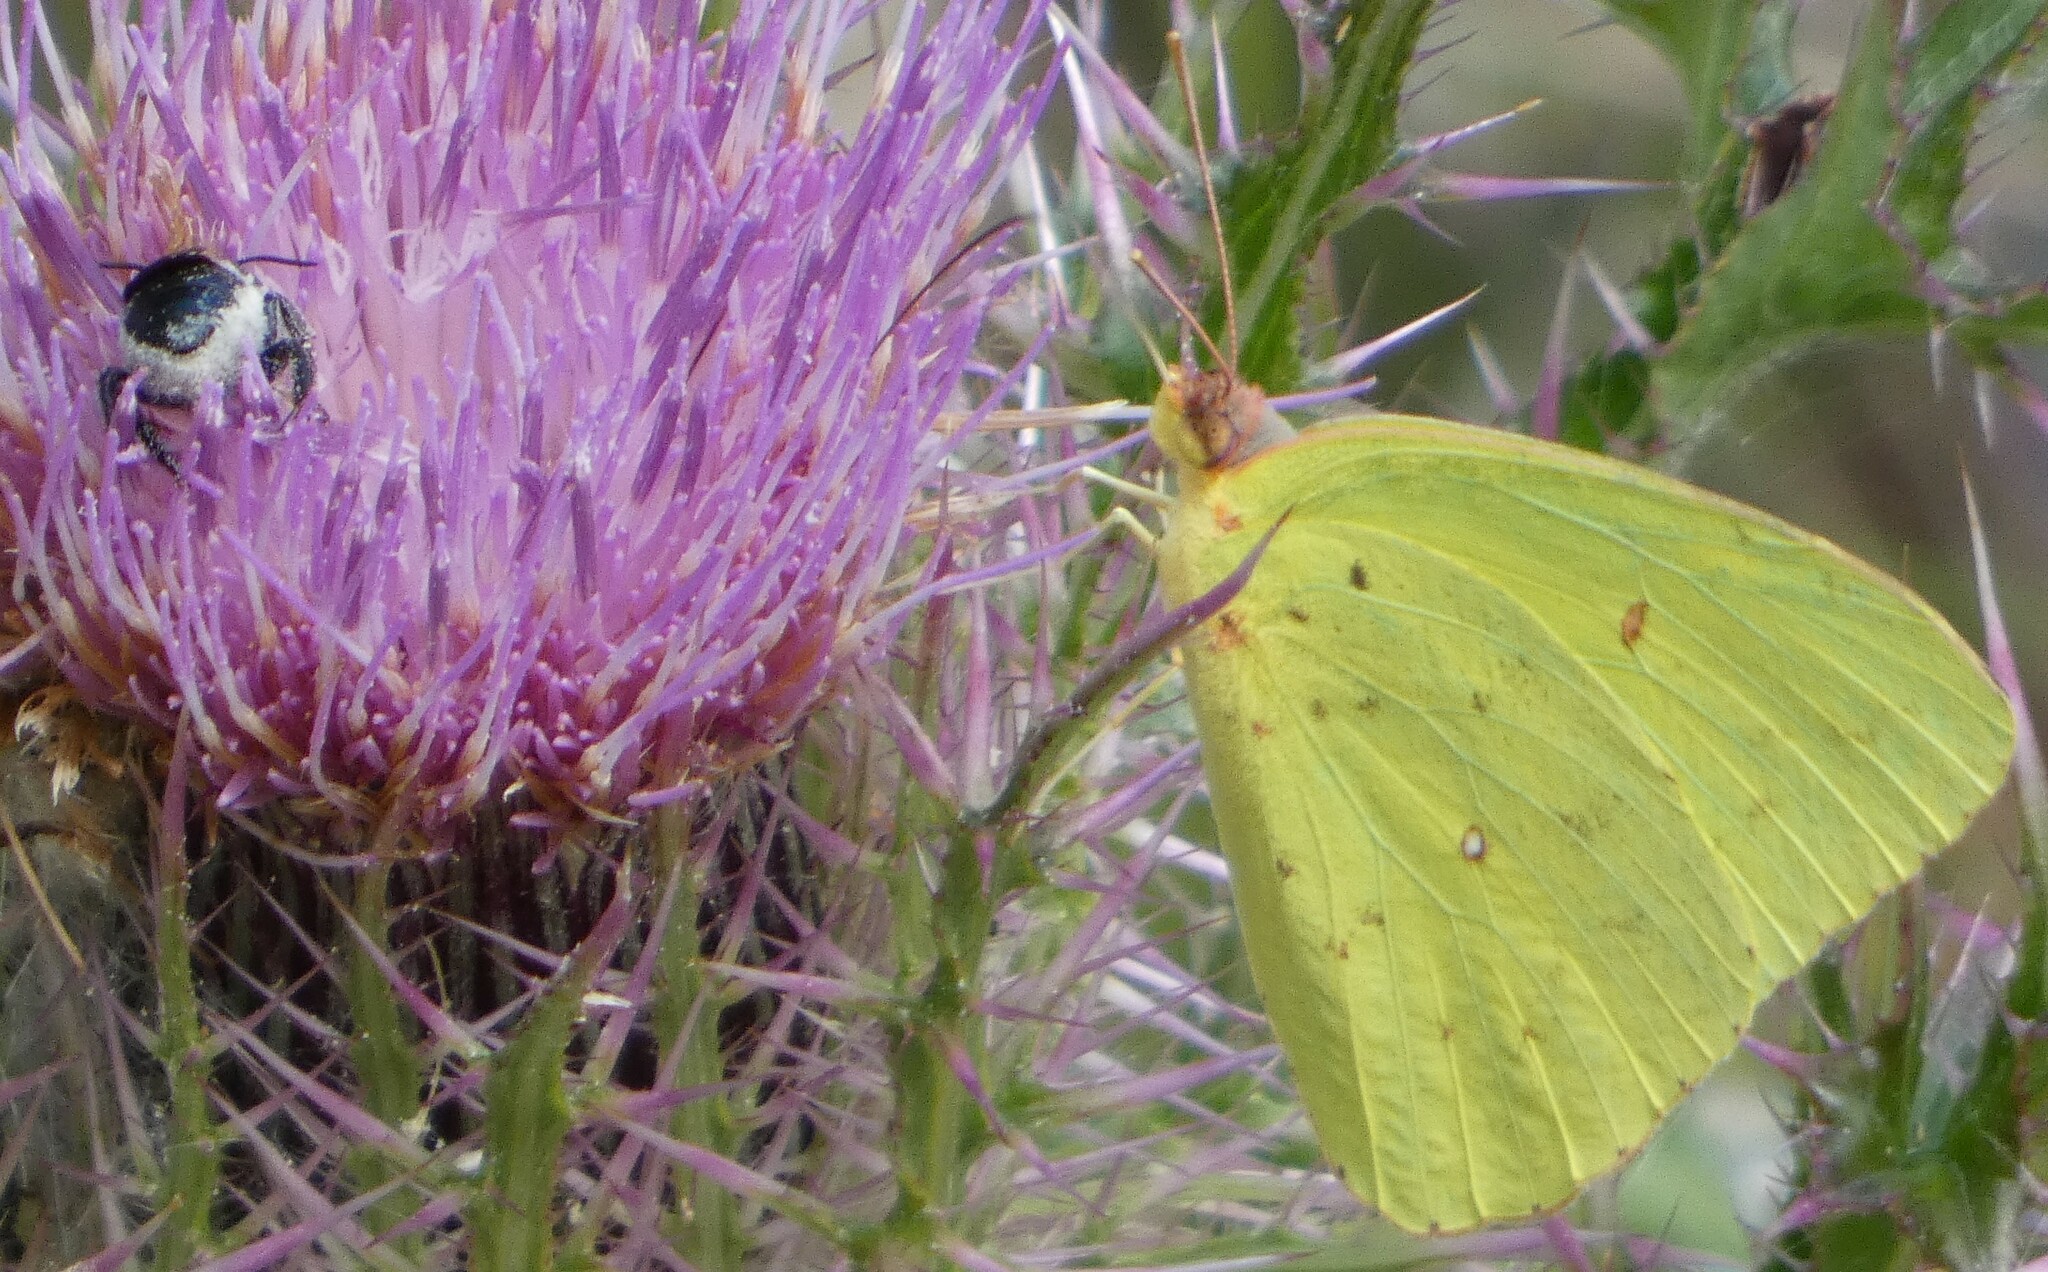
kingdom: Animalia
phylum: Arthropoda
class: Insecta
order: Lepidoptera
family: Pieridae
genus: Phoebis
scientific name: Phoebis sennae
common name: Cloudless sulphur
